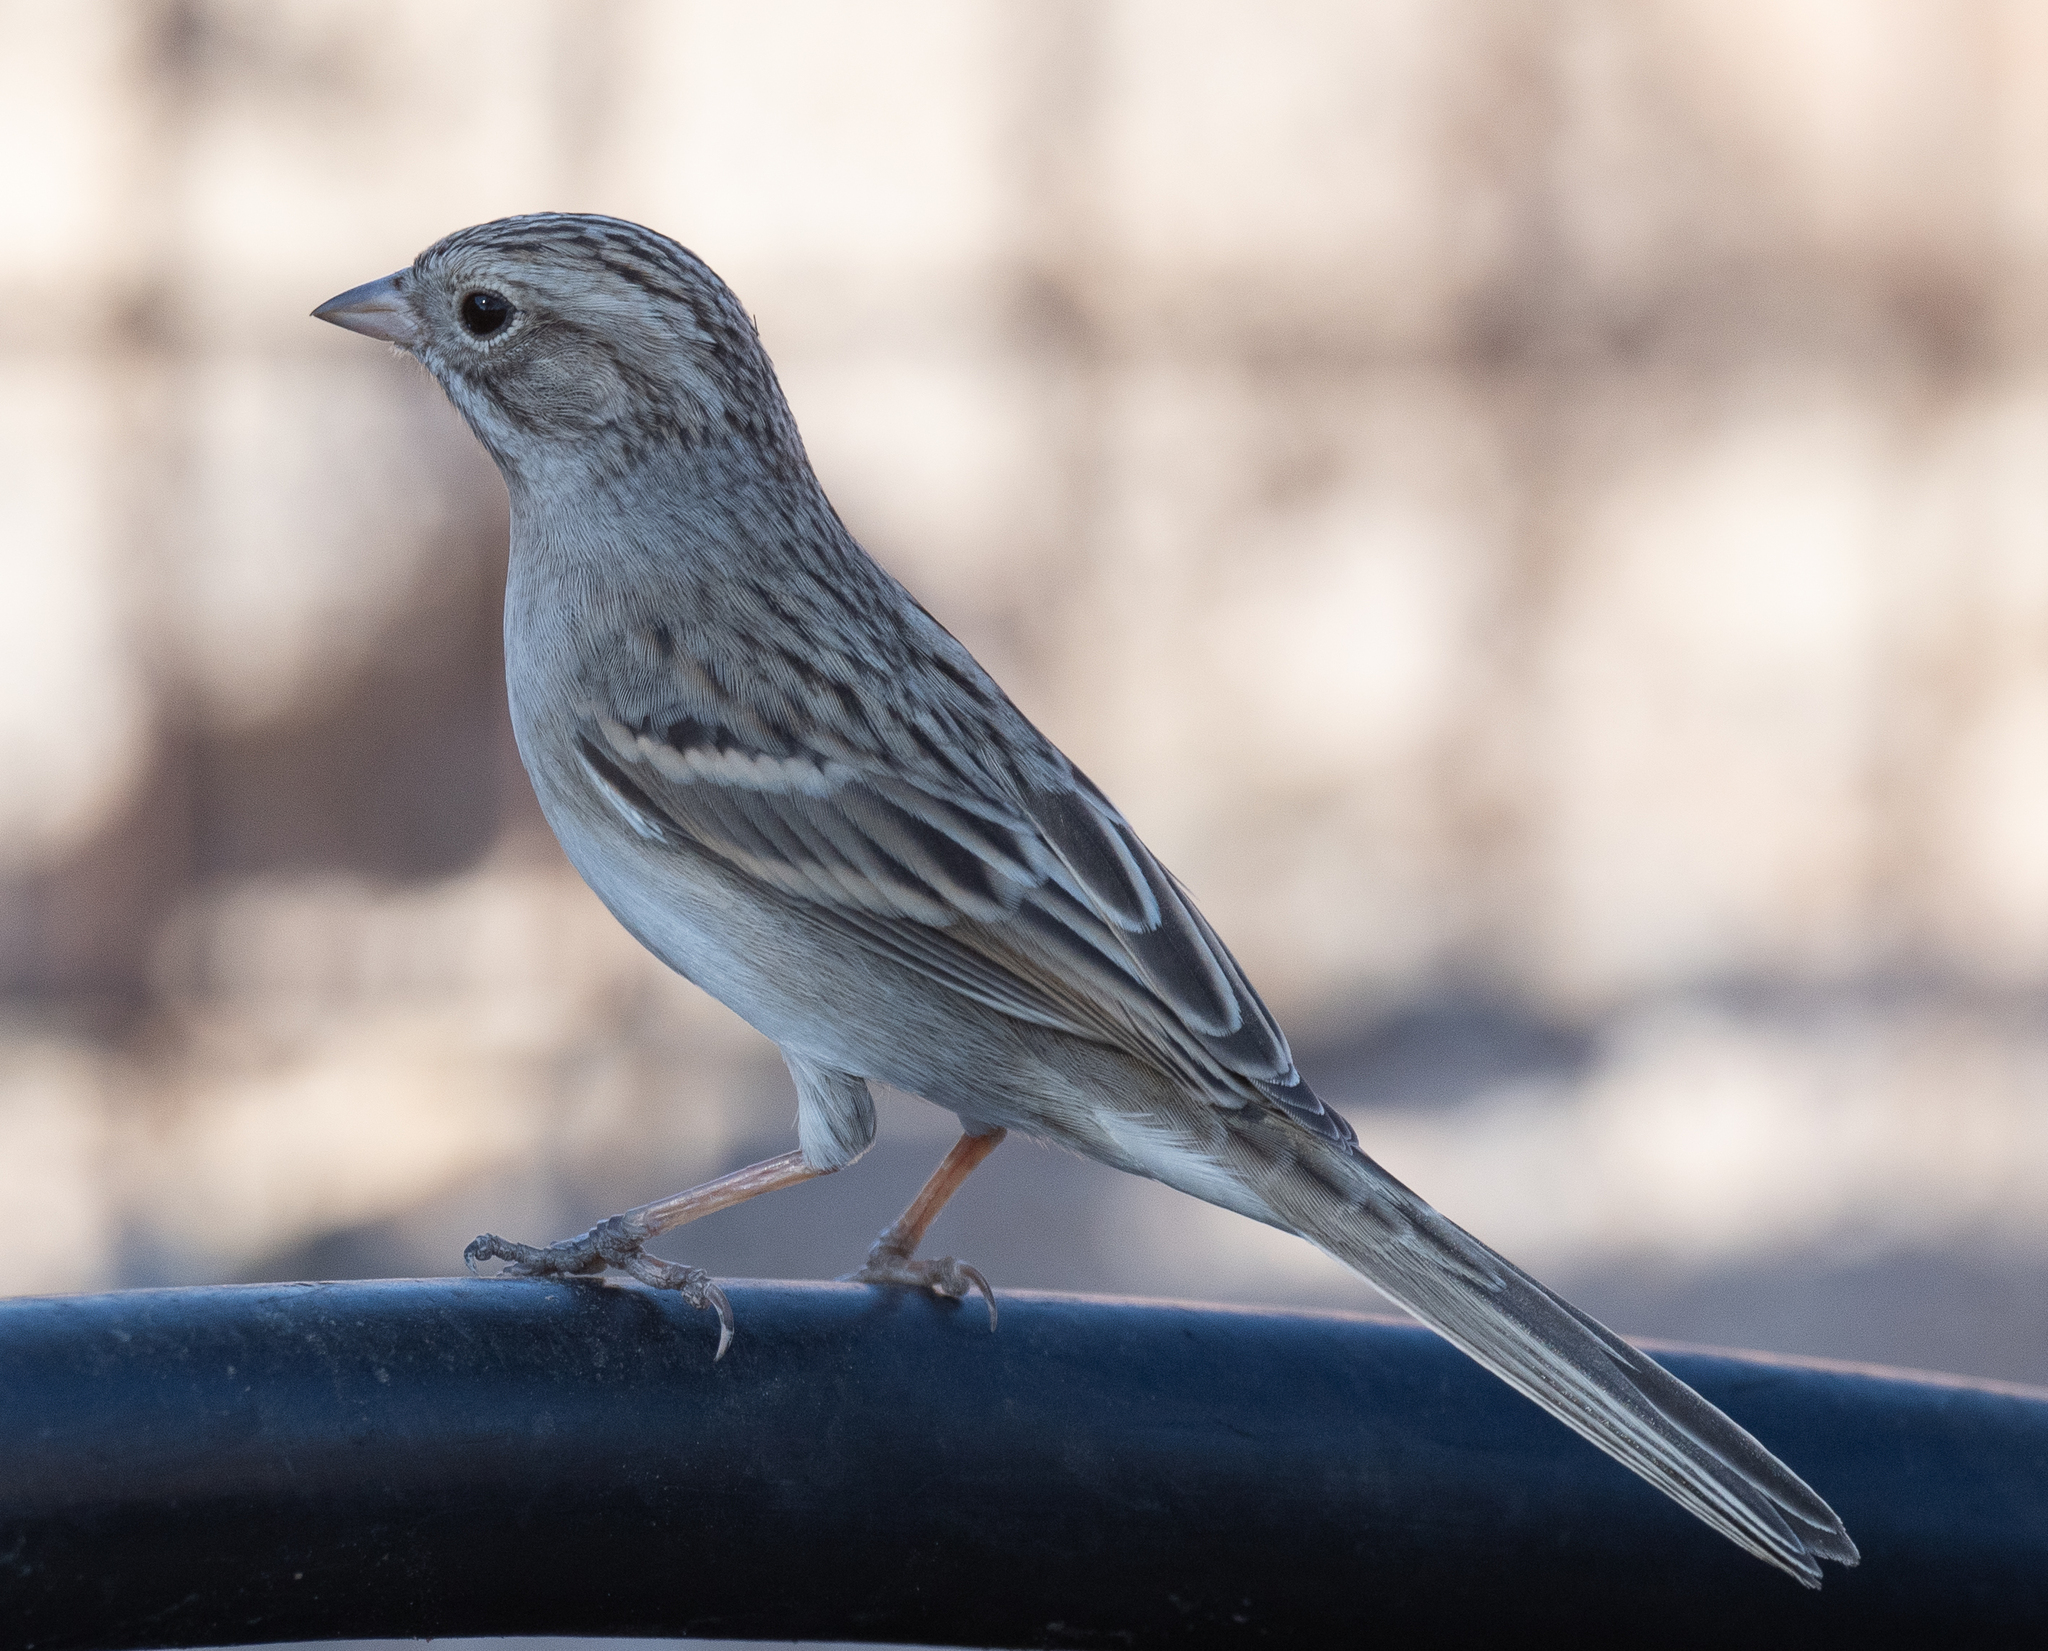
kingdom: Animalia
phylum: Chordata
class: Aves
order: Passeriformes
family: Passerellidae
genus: Spizella
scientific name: Spizella breweri
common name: Brewer's sparrow
